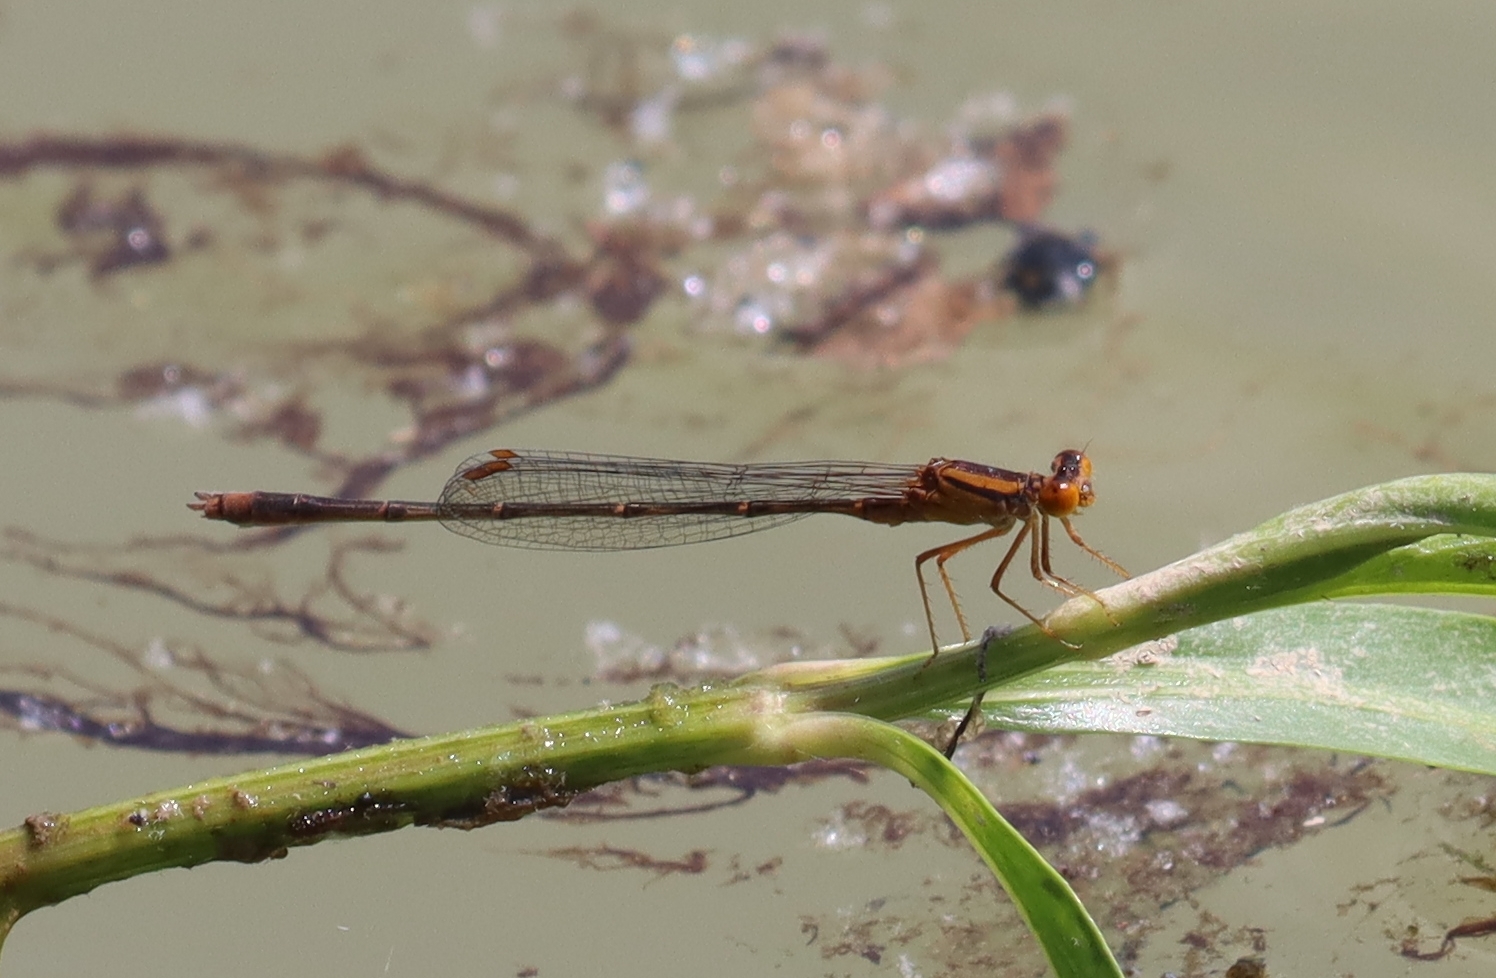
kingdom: Animalia
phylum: Arthropoda
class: Insecta
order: Odonata
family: Coenagrionidae
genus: Enallagma
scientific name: Enallagma signatum
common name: Orange bluet
